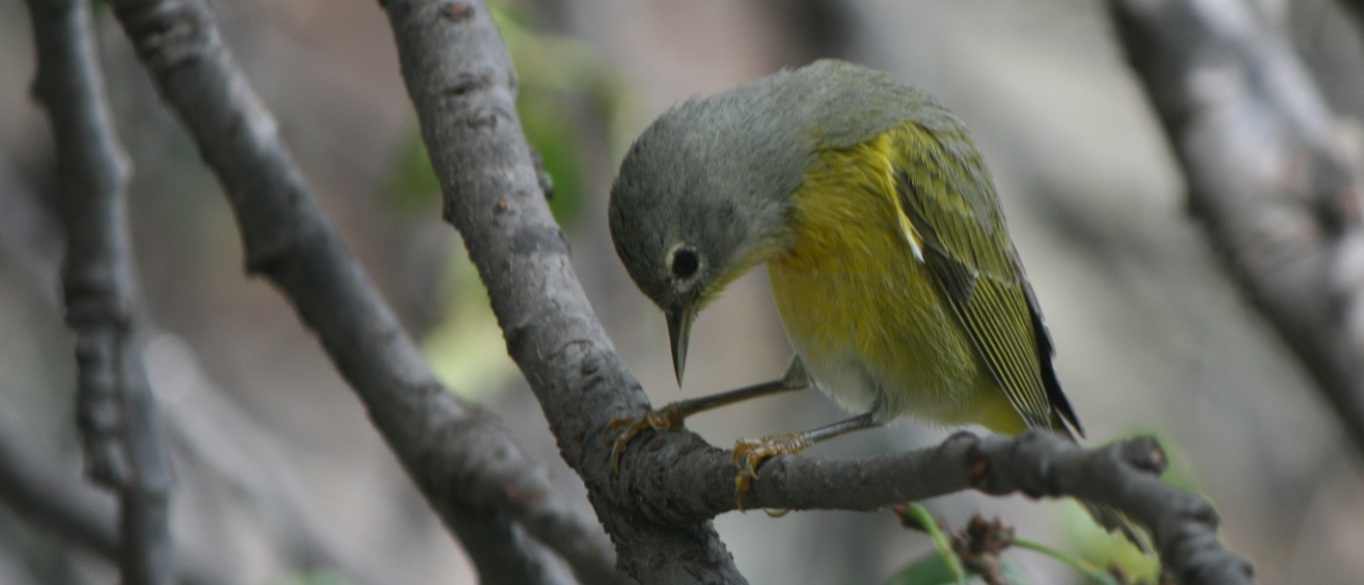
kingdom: Animalia
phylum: Chordata
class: Aves
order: Passeriformes
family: Parulidae
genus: Leiothlypis
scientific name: Leiothlypis ruficapilla
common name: Nashville warbler
